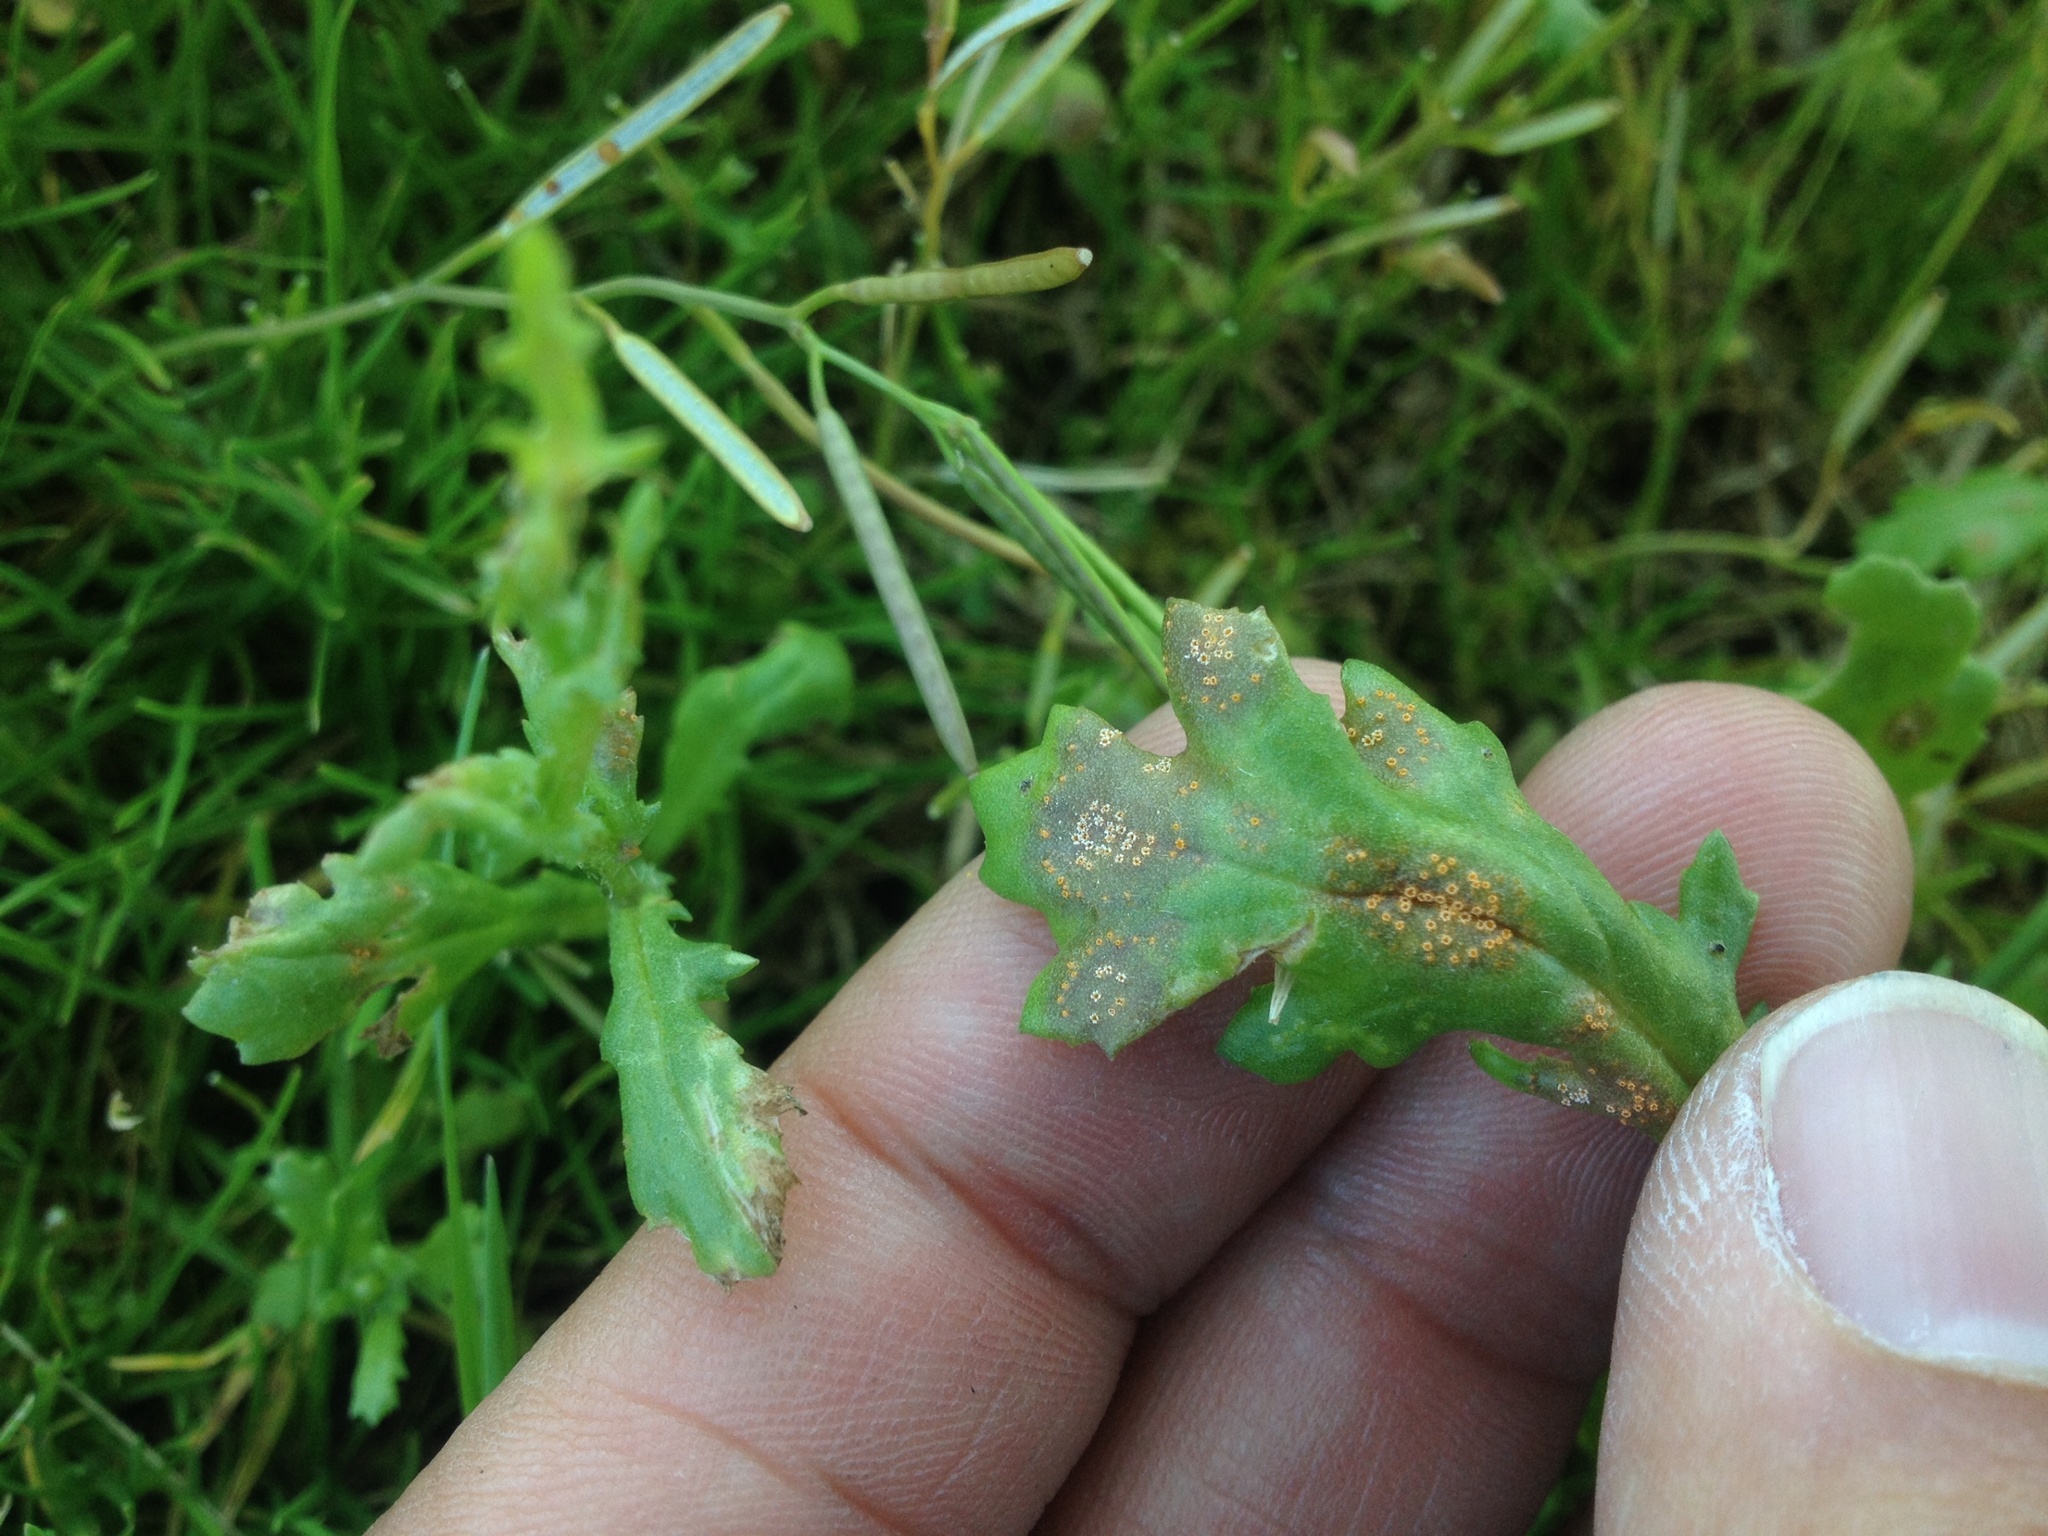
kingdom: Fungi
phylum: Basidiomycota
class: Pucciniomycetes
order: Pucciniales
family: Pucciniaceae
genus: Puccinia
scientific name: Puccinia lagenophorae
